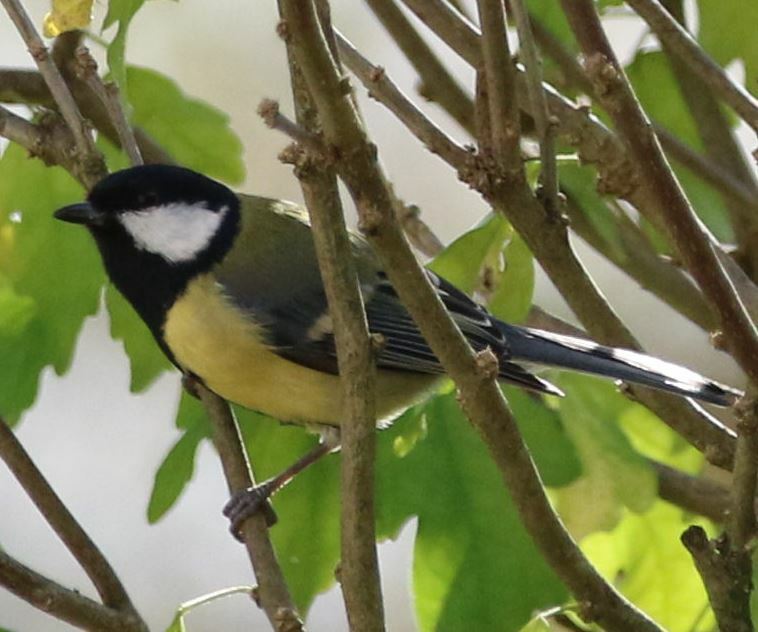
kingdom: Animalia
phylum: Chordata
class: Aves
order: Passeriformes
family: Paridae
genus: Parus
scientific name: Parus major
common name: Great tit
